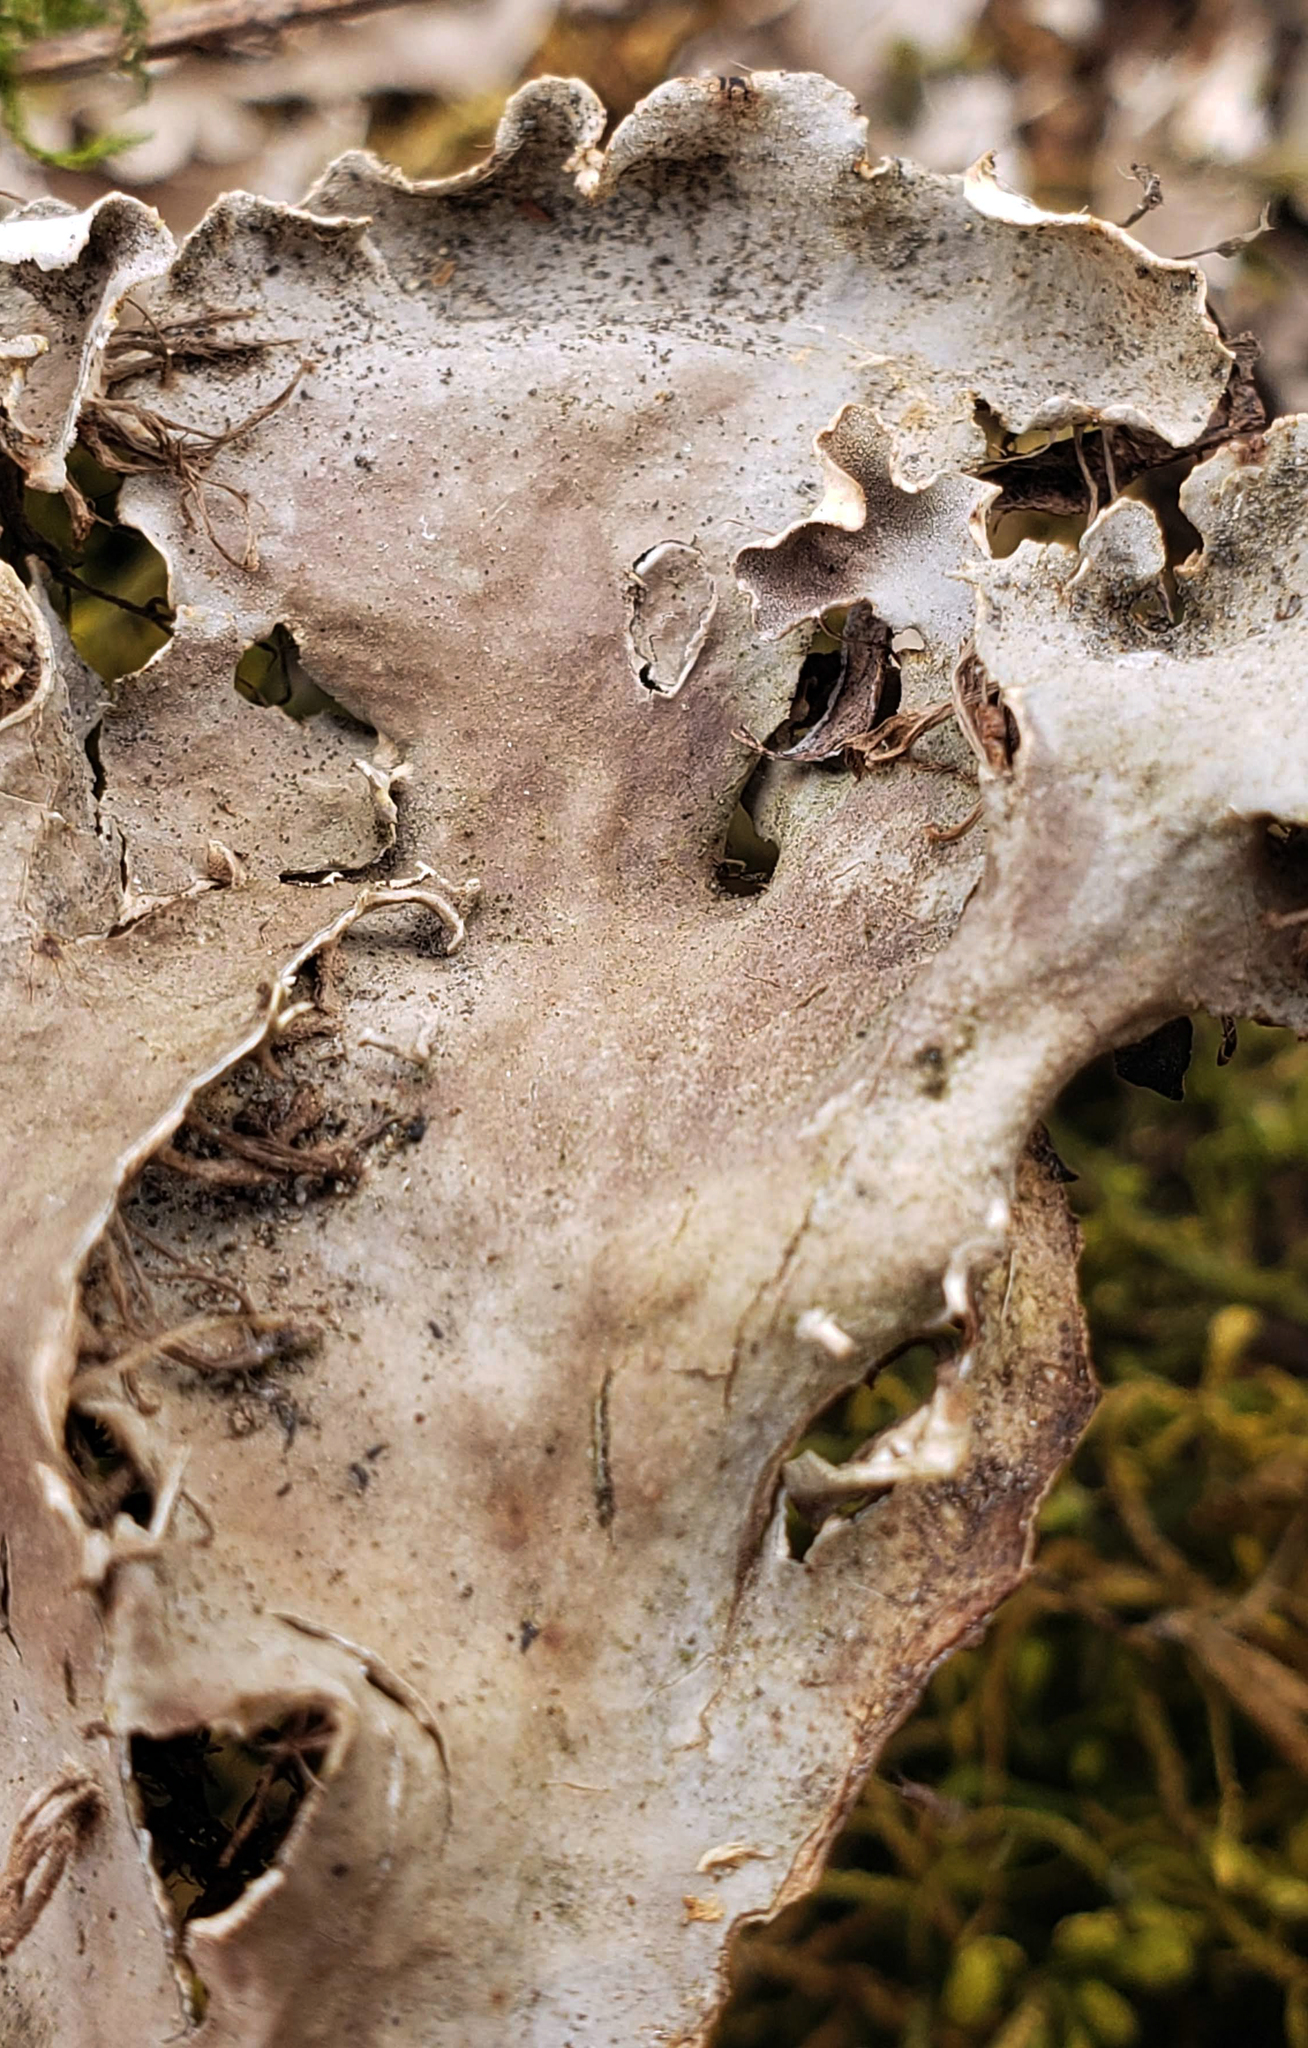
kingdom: Fungi
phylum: Ascomycota
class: Lecanoromycetes
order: Peltigerales
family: Peltigeraceae
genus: Peltigera
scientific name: Peltigera praetextata
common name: Scaly dog-lichen
